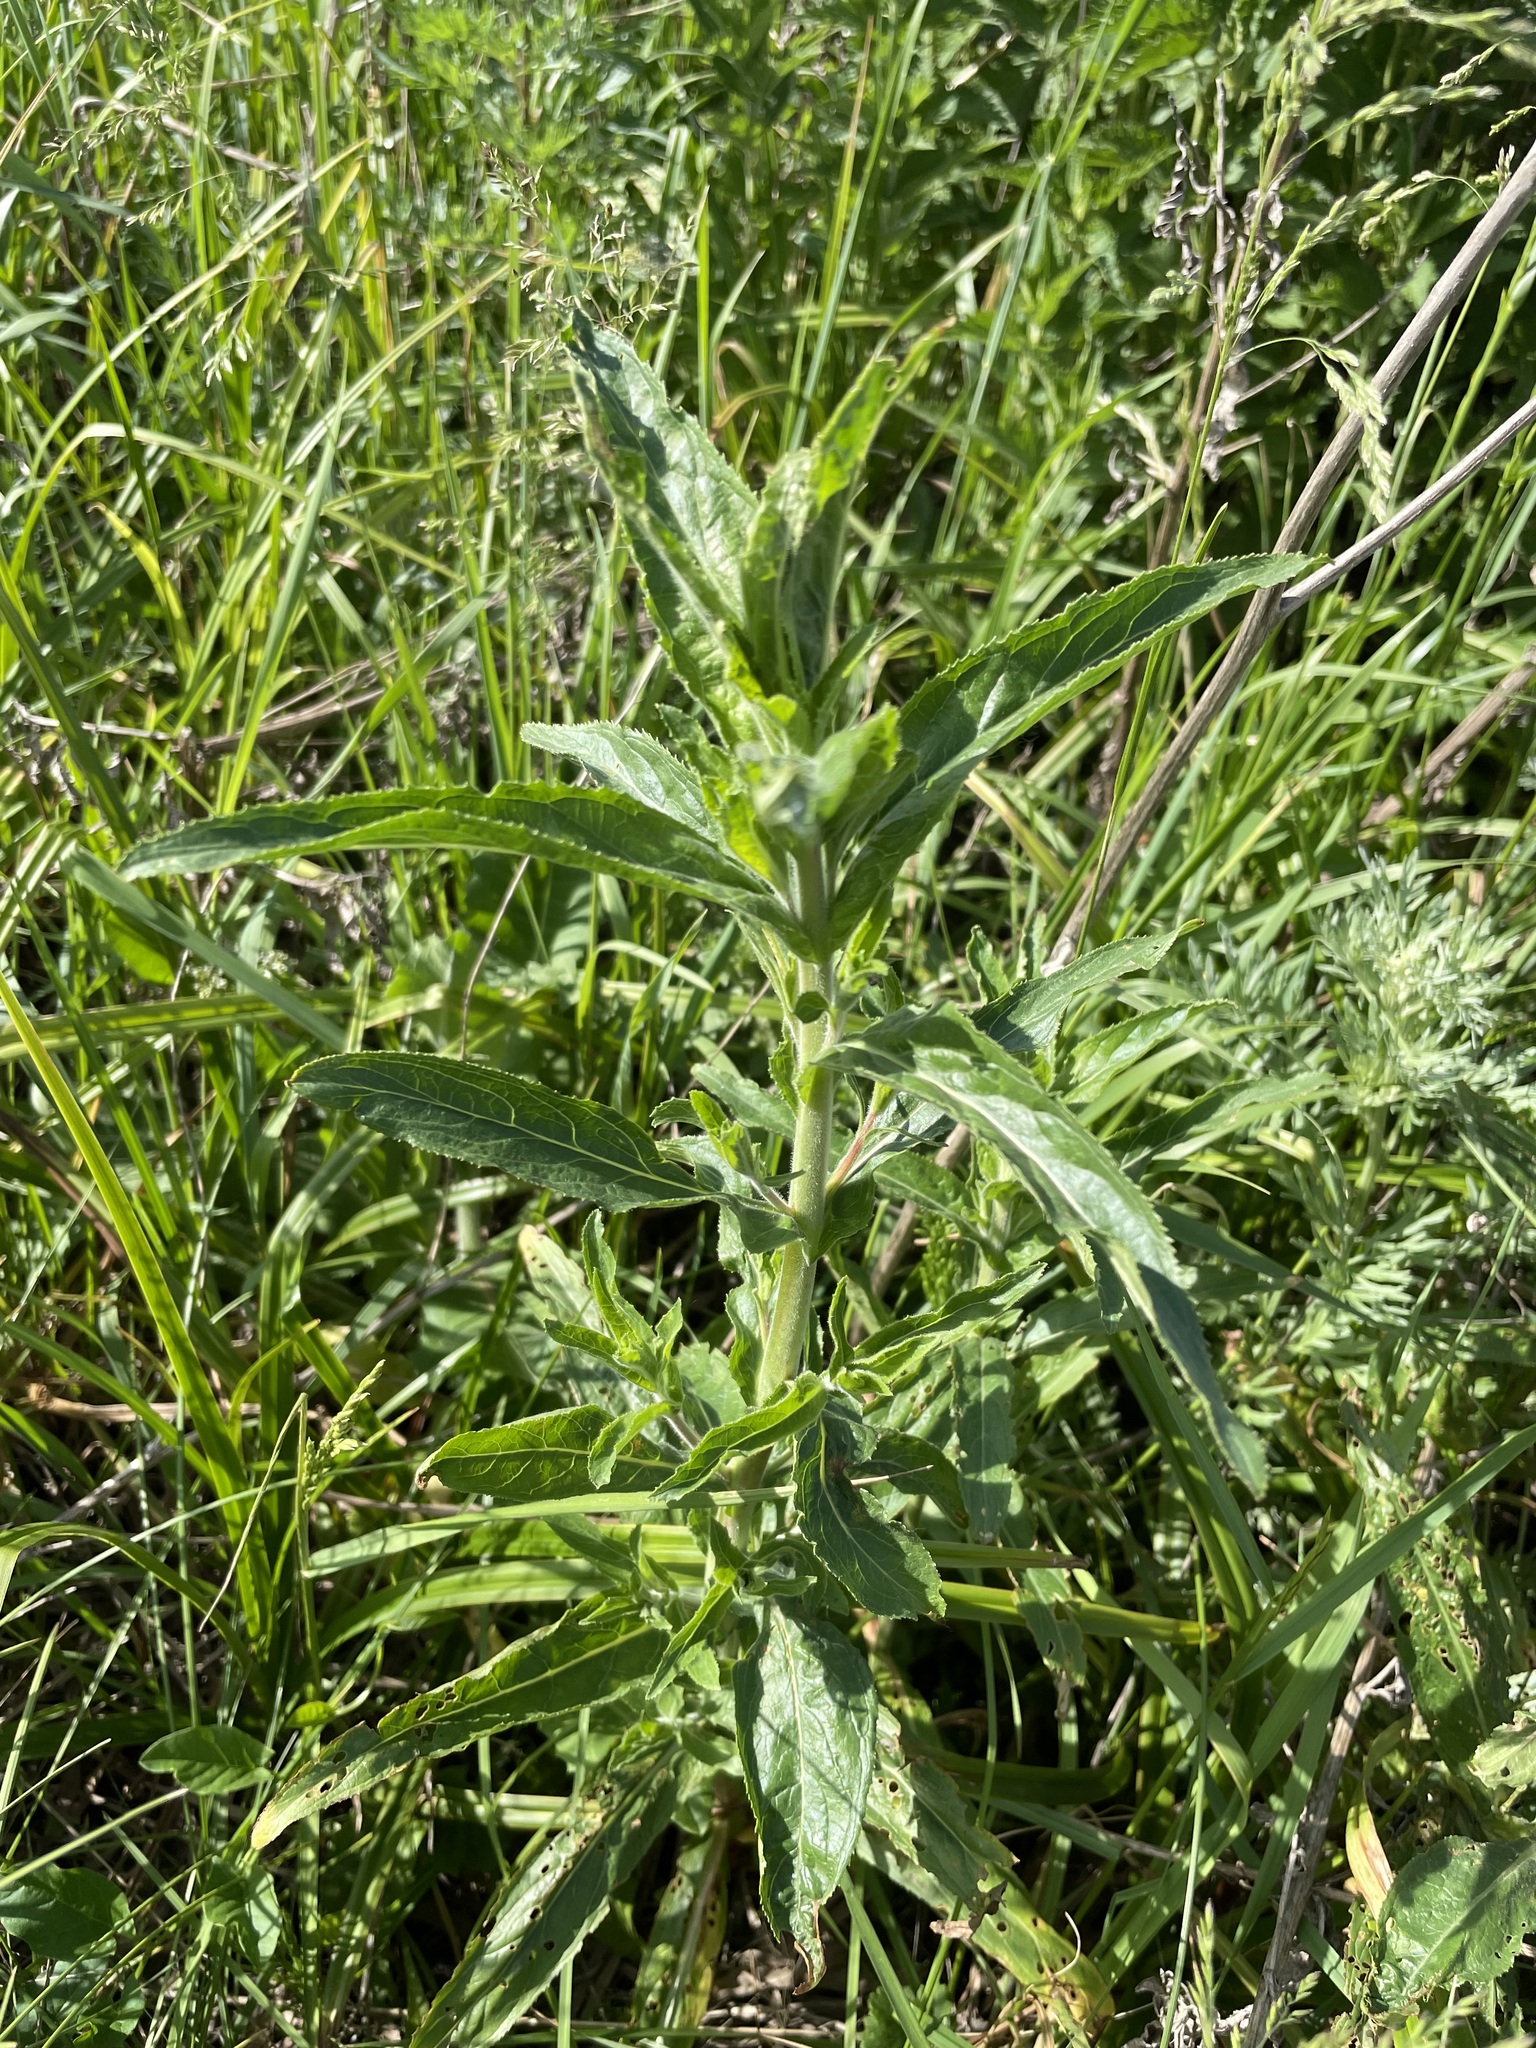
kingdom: Plantae
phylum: Tracheophyta
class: Magnoliopsida
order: Myrtales
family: Onagraceae
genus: Epilobium
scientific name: Epilobium hirsutum
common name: Great willowherb
